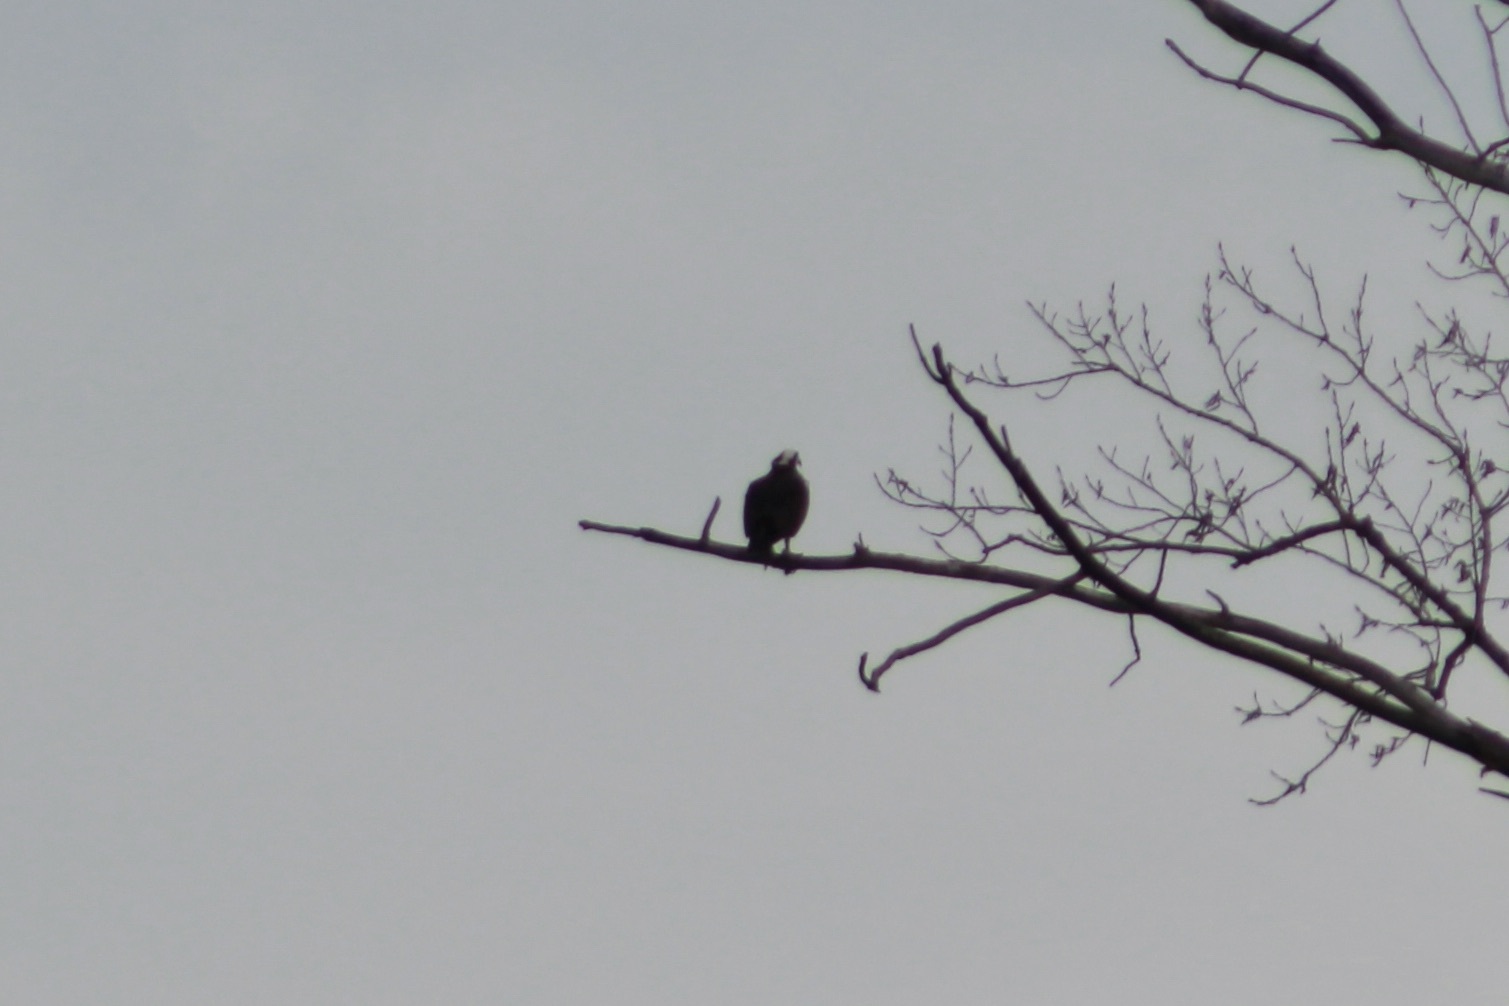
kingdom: Animalia
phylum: Chordata
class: Aves
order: Accipitriformes
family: Pandionidae
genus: Pandion
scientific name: Pandion haliaetus
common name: Osprey
